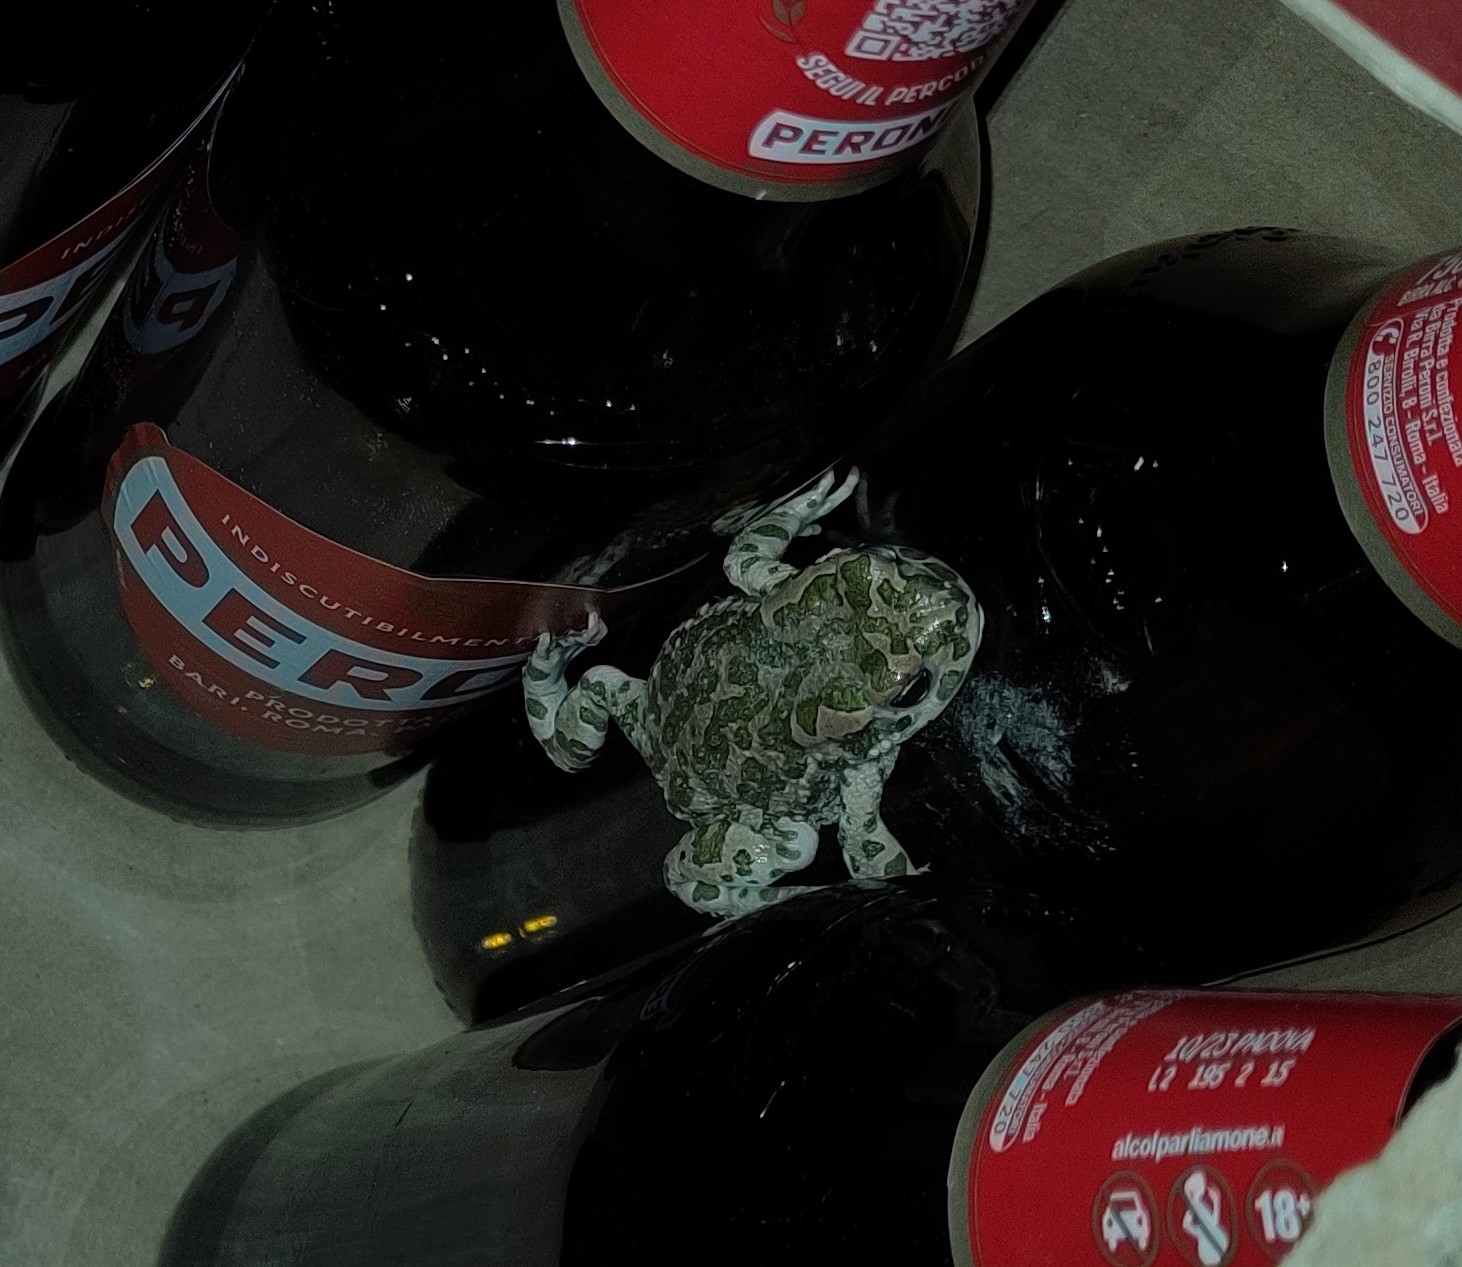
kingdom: Animalia
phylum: Chordata
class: Amphibia
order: Anura
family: Bufonidae
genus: Bufotes
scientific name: Bufotes viridis
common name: European green toad
